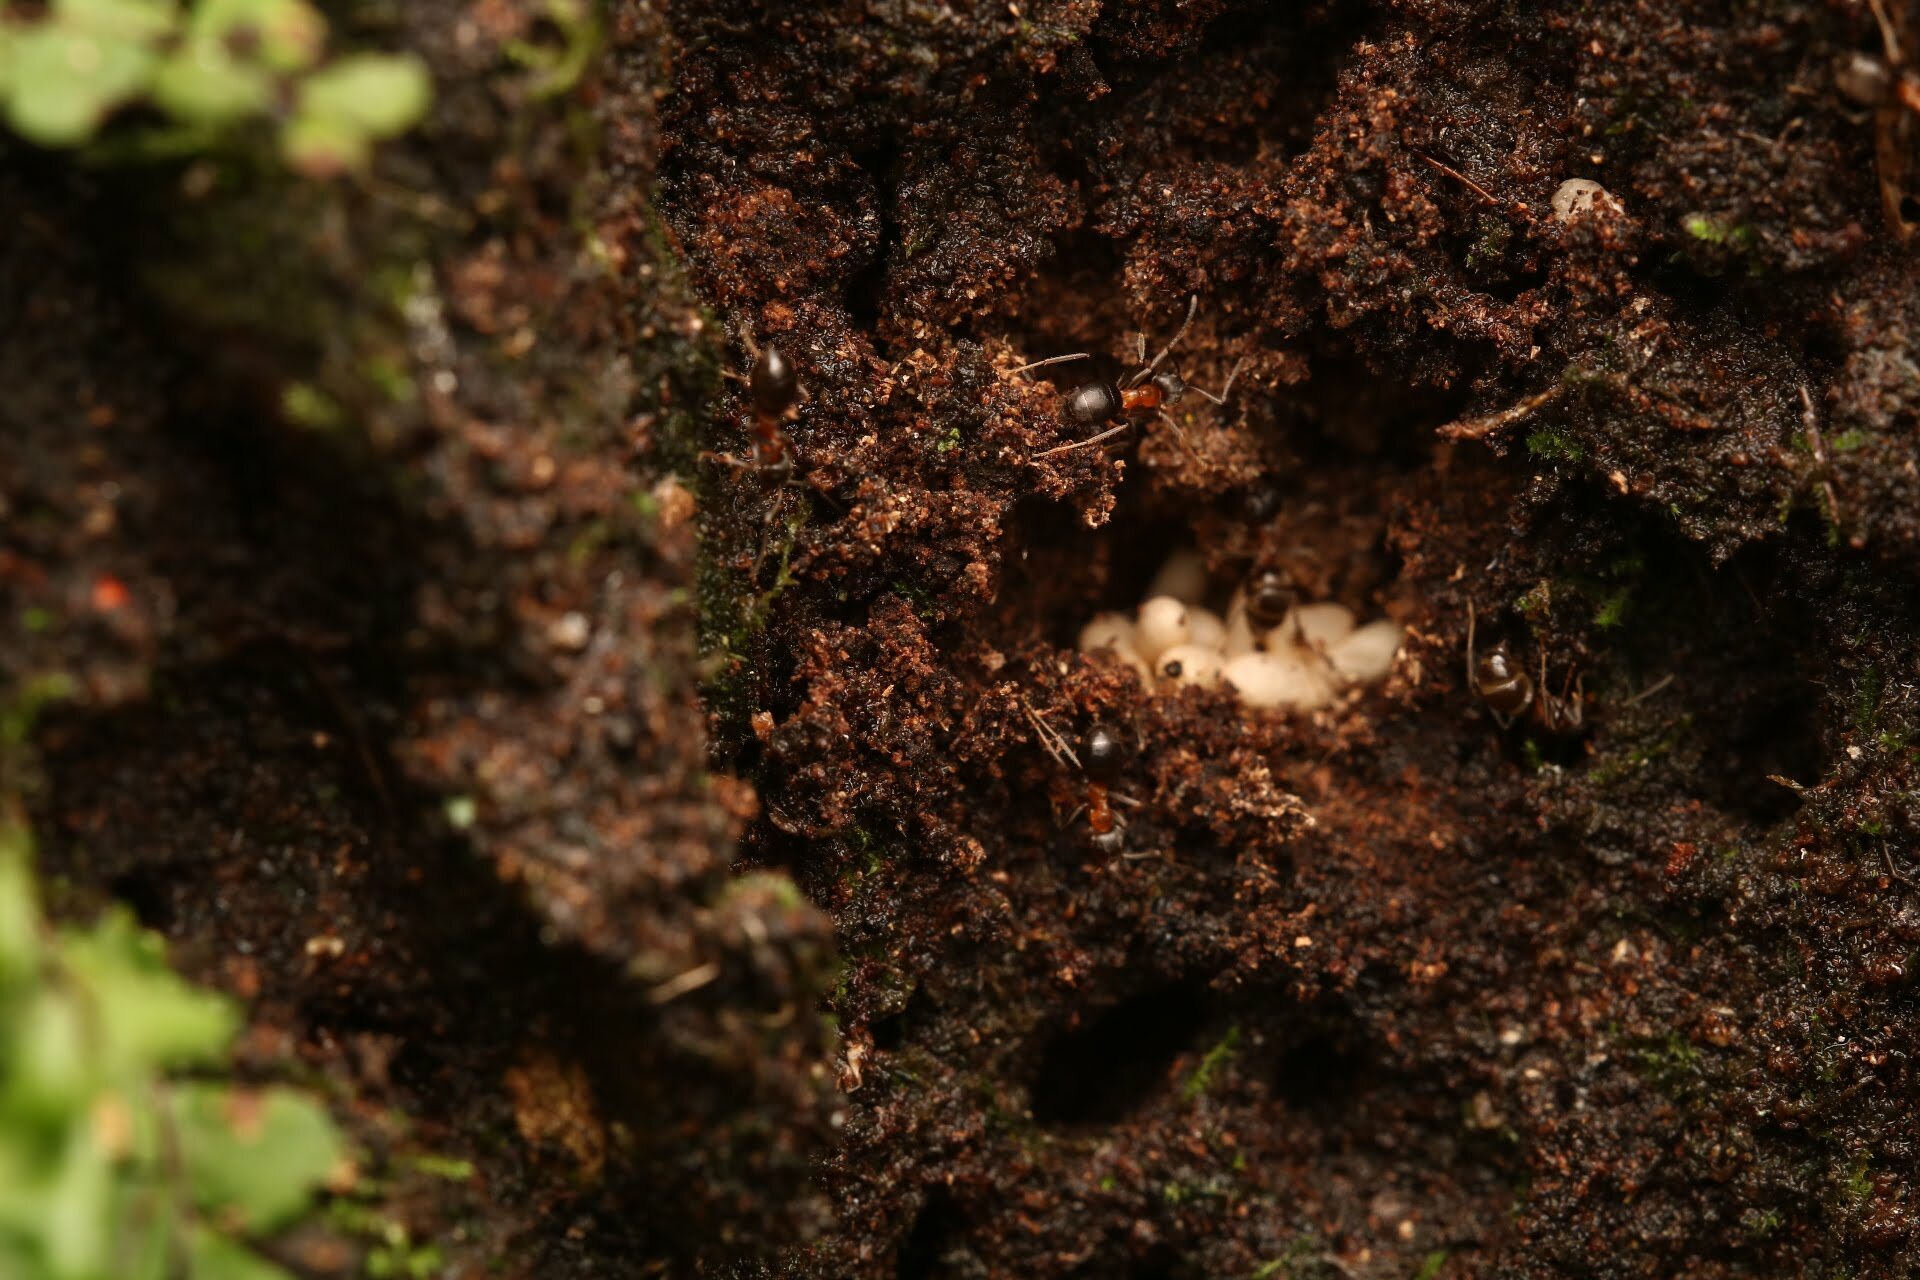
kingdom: Animalia
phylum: Arthropoda
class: Insecta
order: Hymenoptera
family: Formicidae
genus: Lasius
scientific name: Lasius emarginatus
